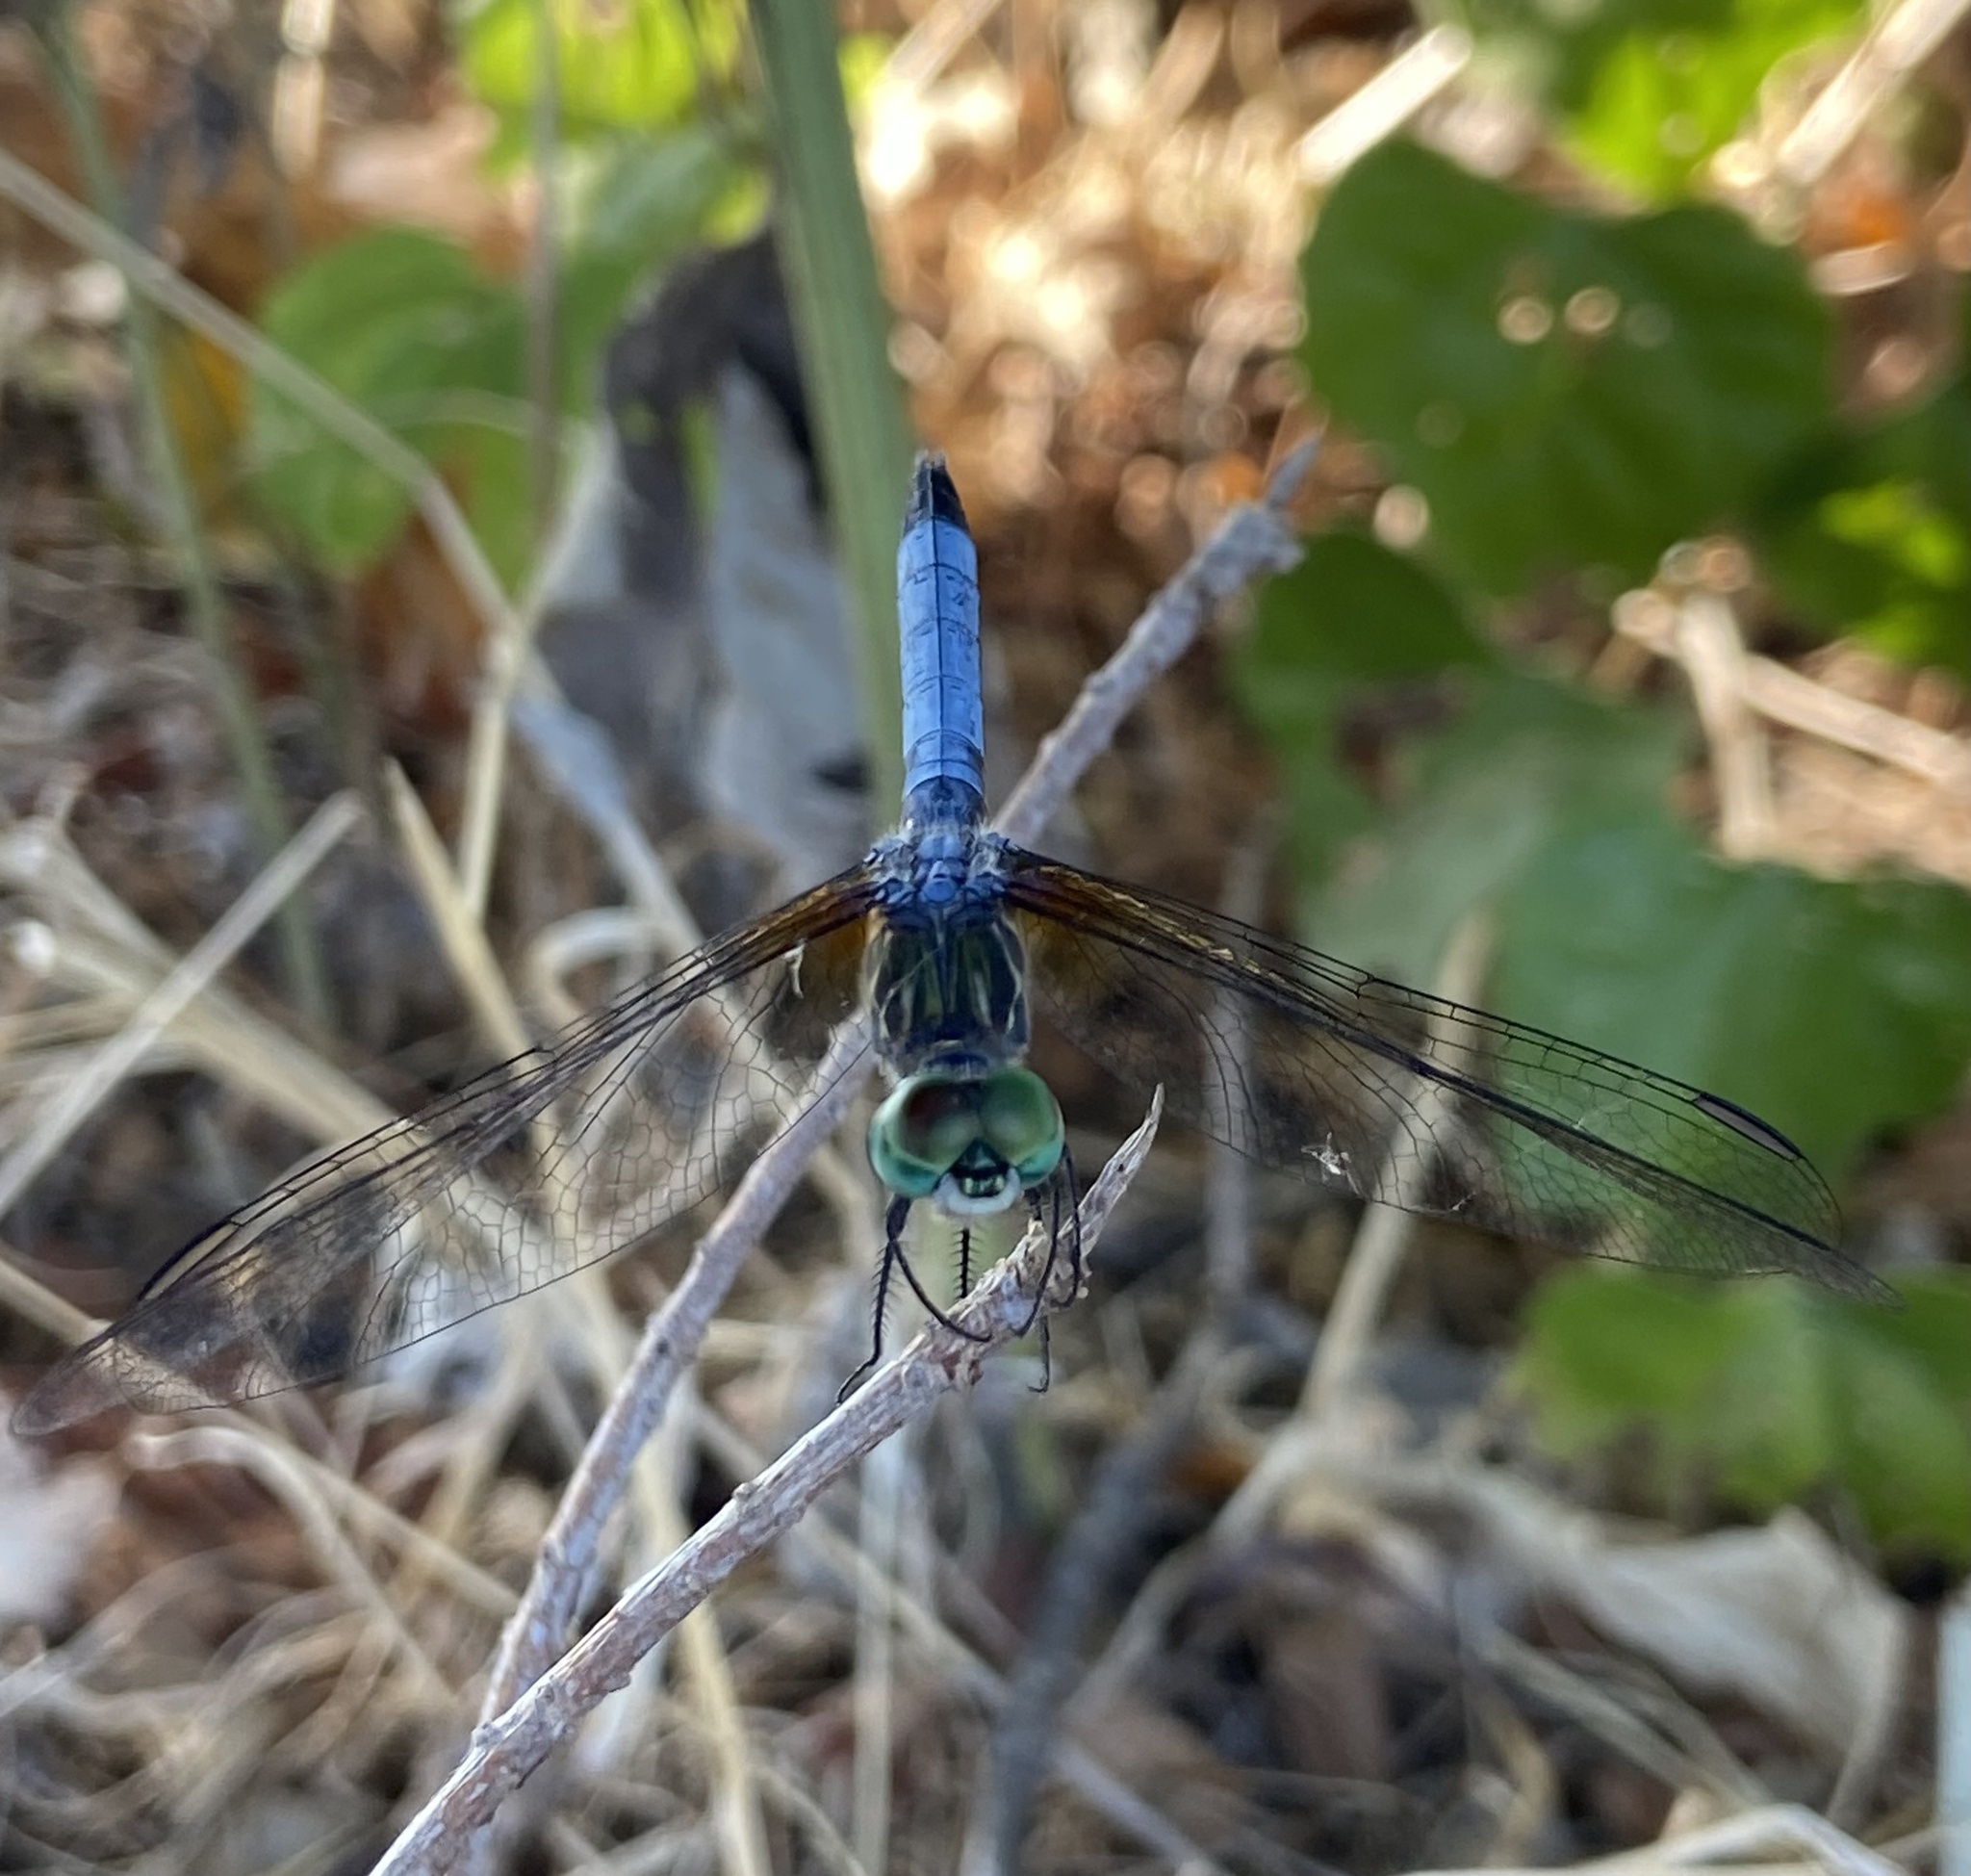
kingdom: Animalia
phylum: Arthropoda
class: Insecta
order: Odonata
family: Libellulidae
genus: Pachydiplax
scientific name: Pachydiplax longipennis
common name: Blue dasher
